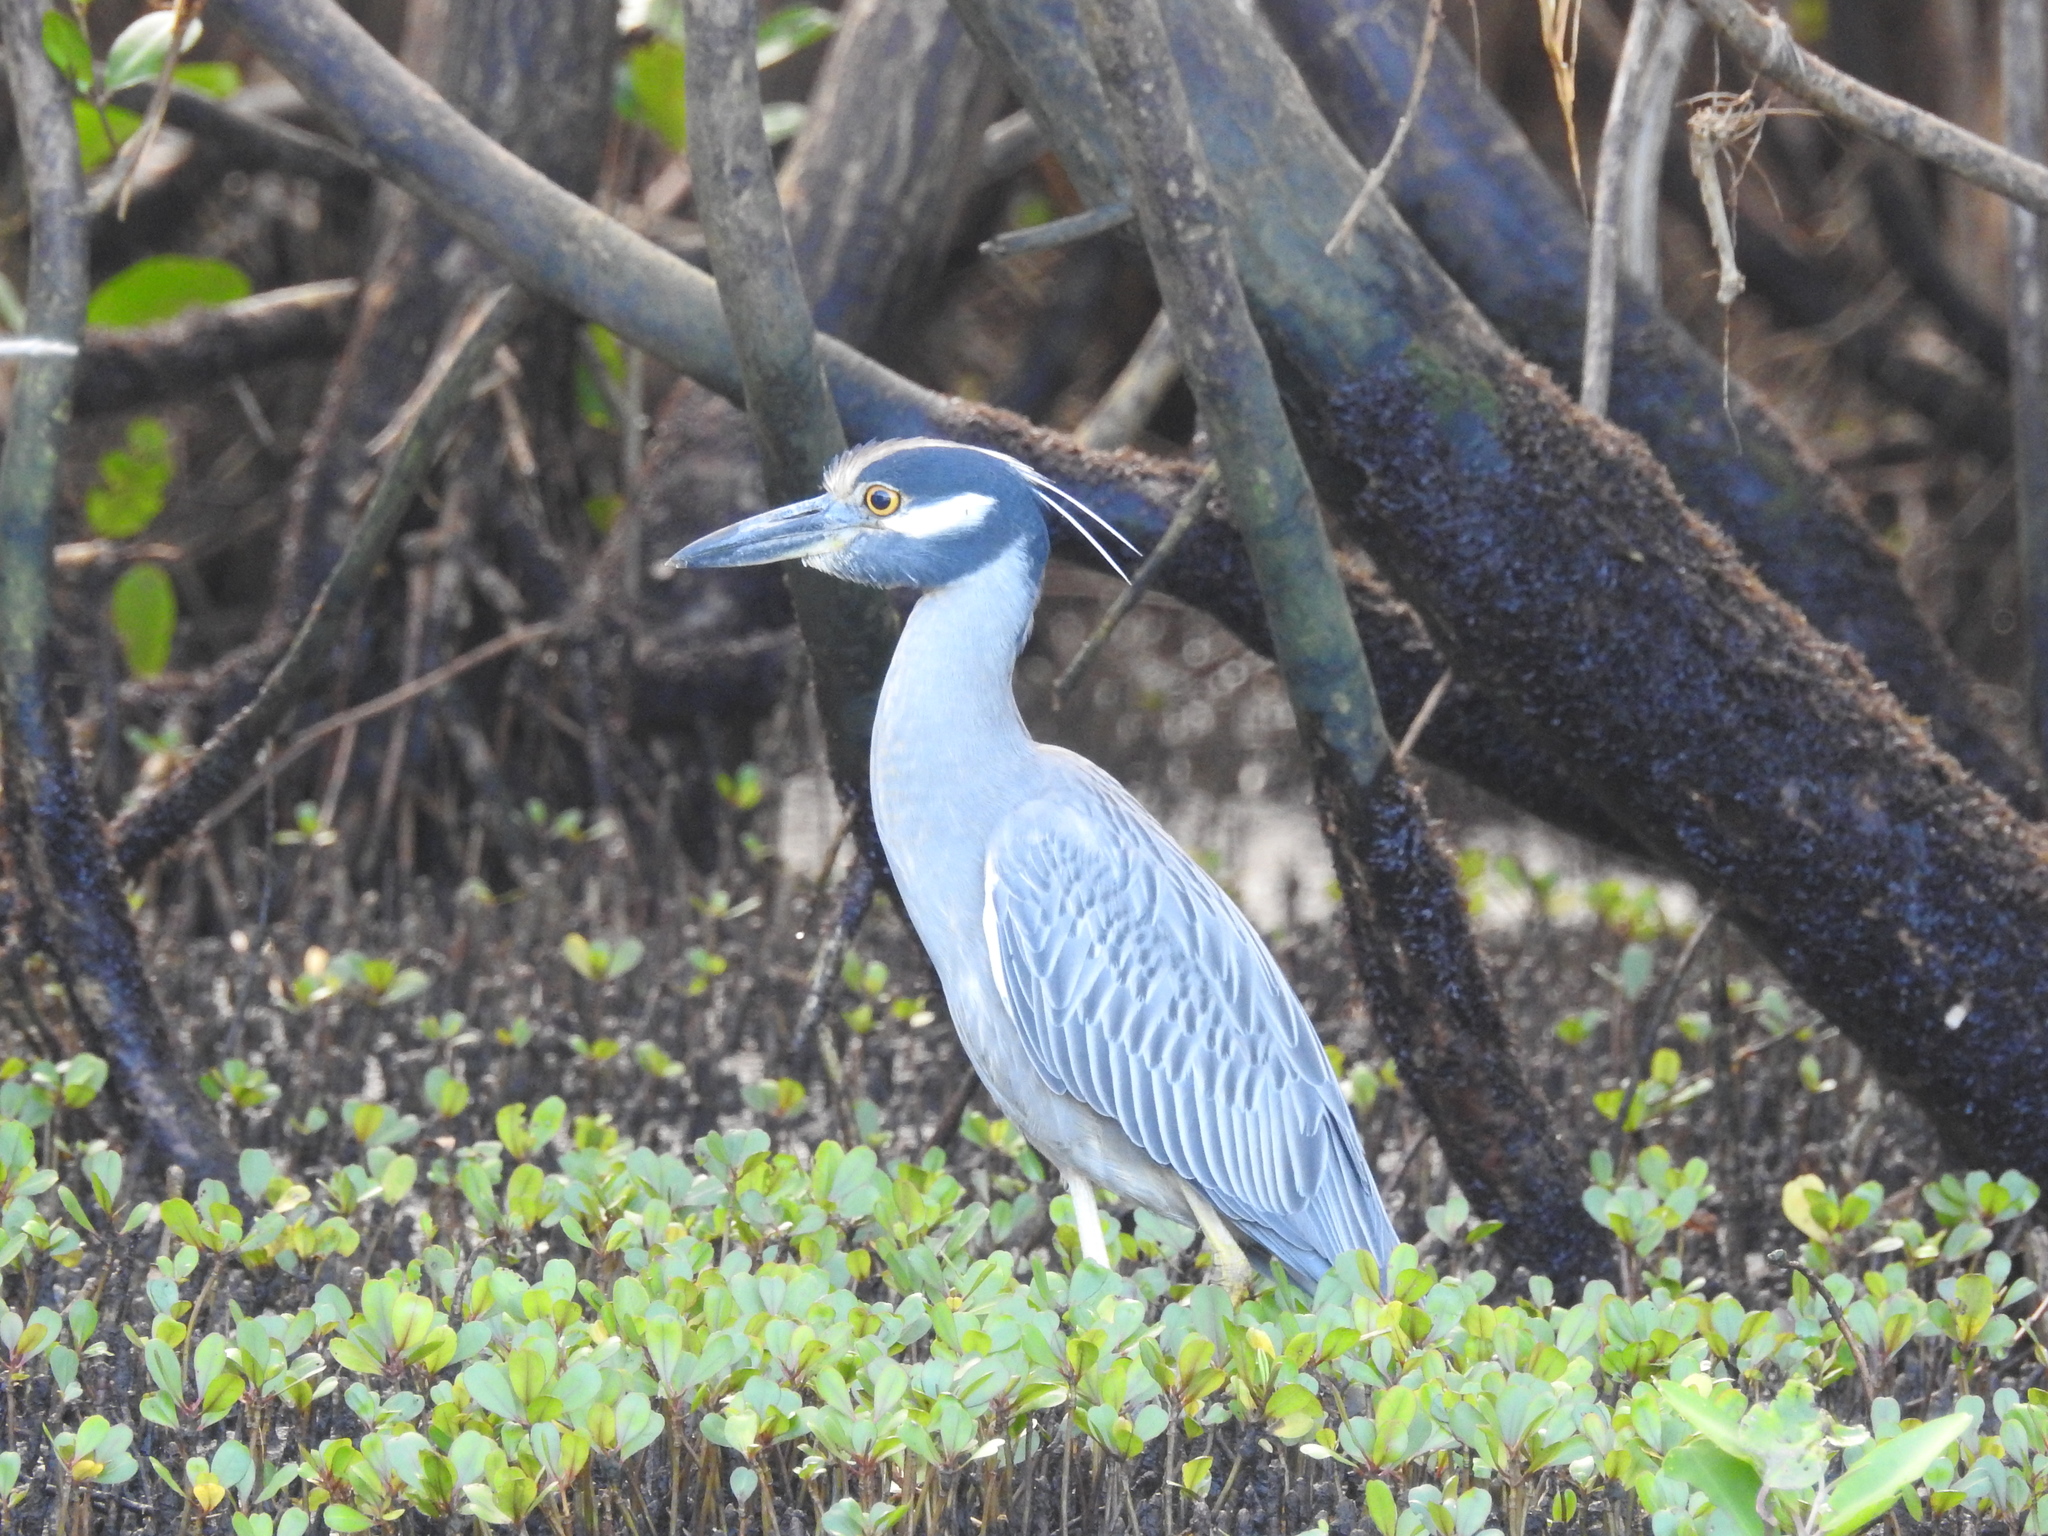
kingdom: Animalia
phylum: Chordata
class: Aves
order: Pelecaniformes
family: Ardeidae
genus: Nyctanassa
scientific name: Nyctanassa violacea
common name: Yellow-crowned night heron
